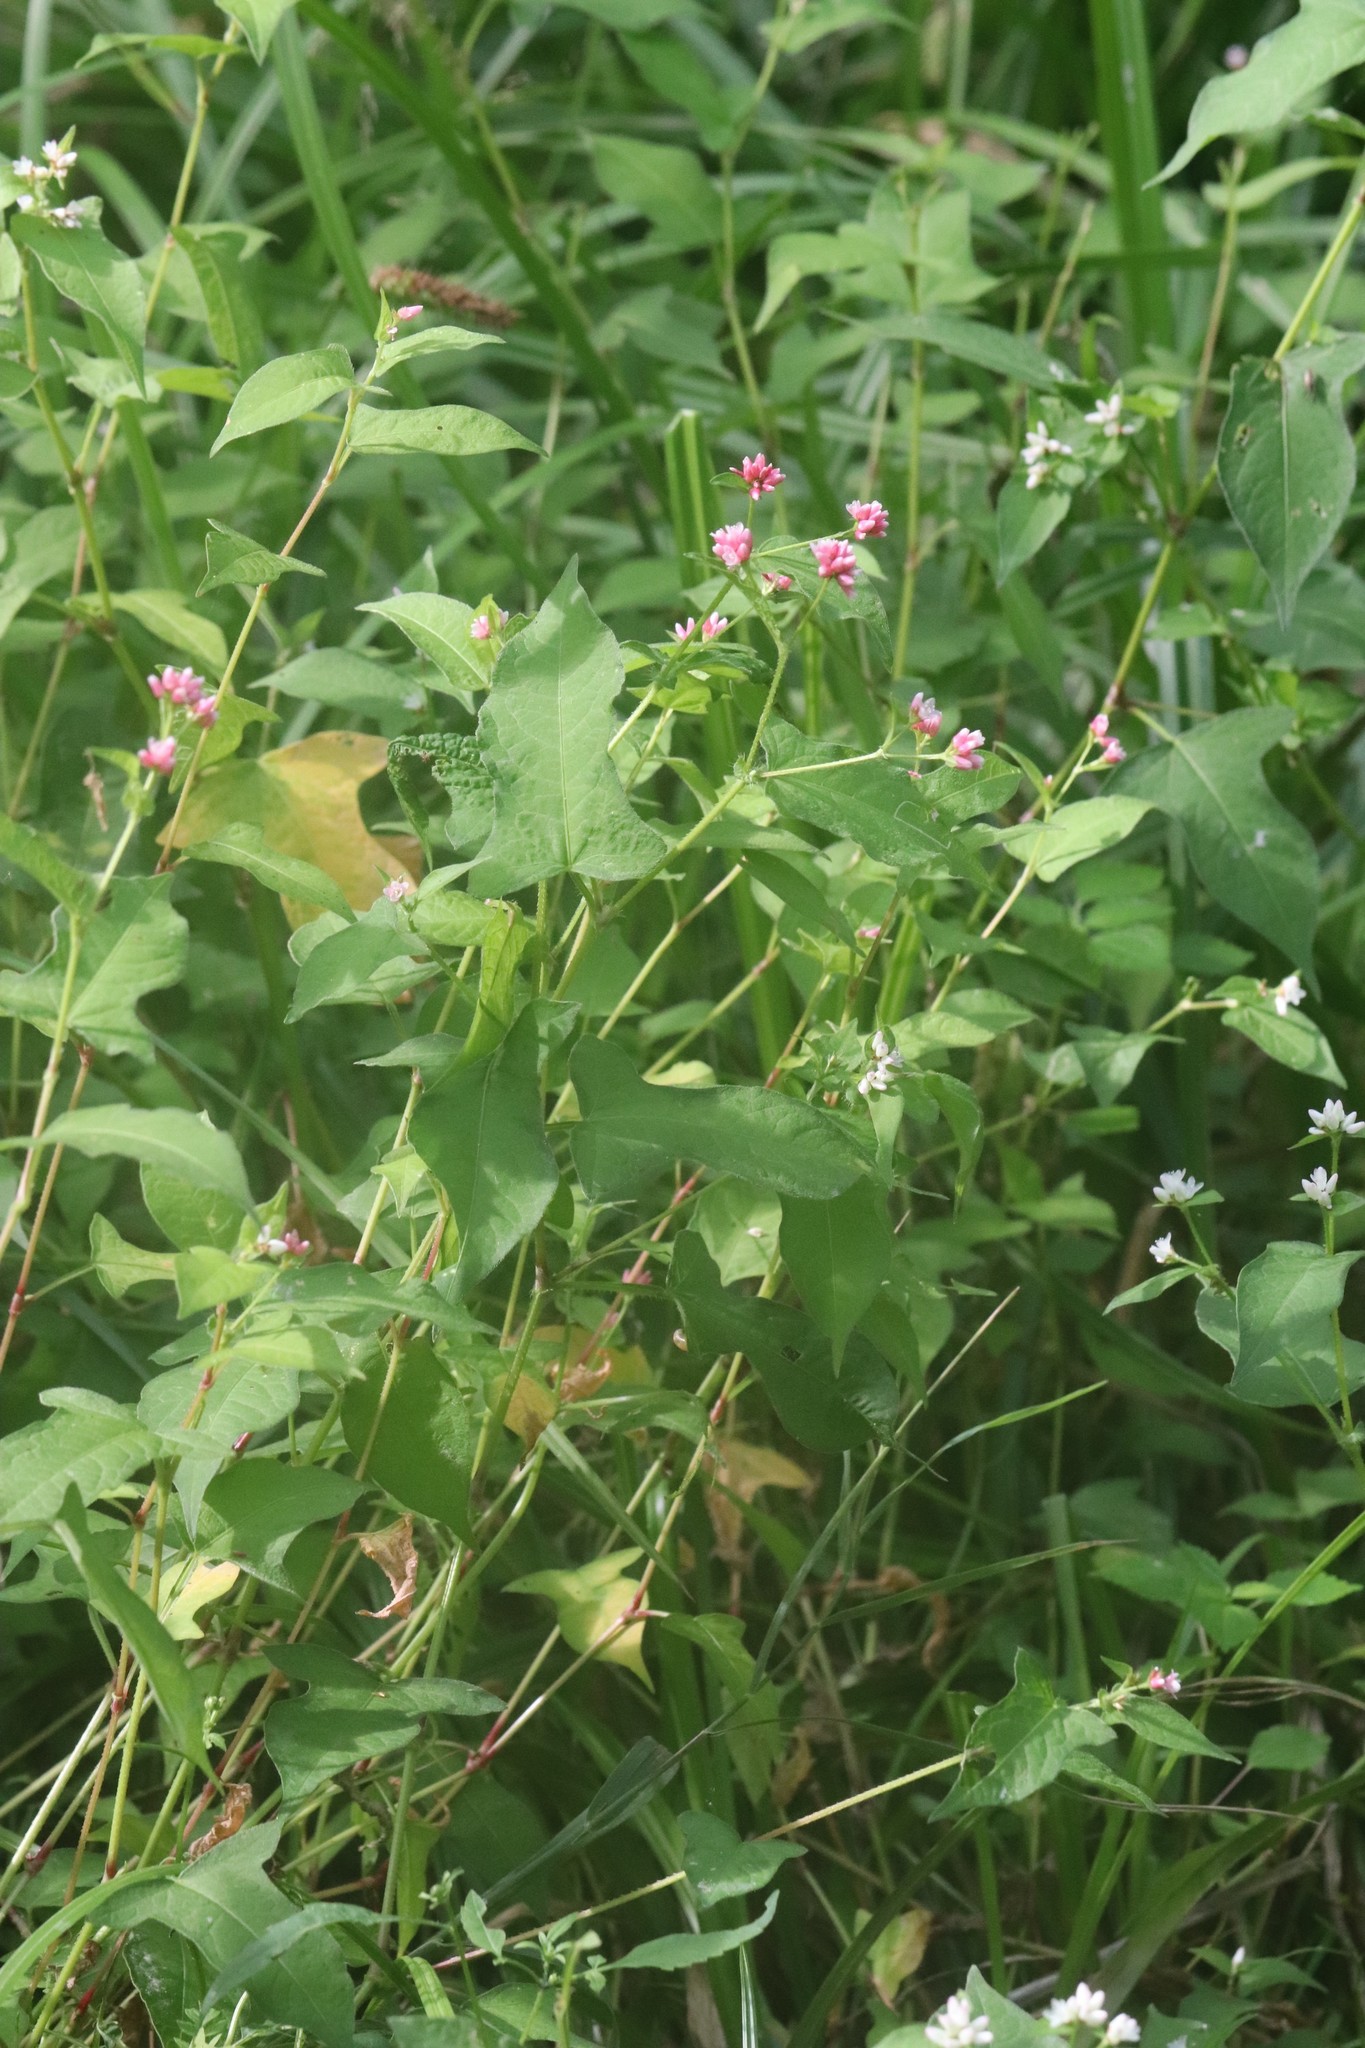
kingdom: Plantae
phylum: Tracheophyta
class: Magnoliopsida
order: Caryophyllales
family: Polygonaceae
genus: Persicaria
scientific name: Persicaria thunbergii
